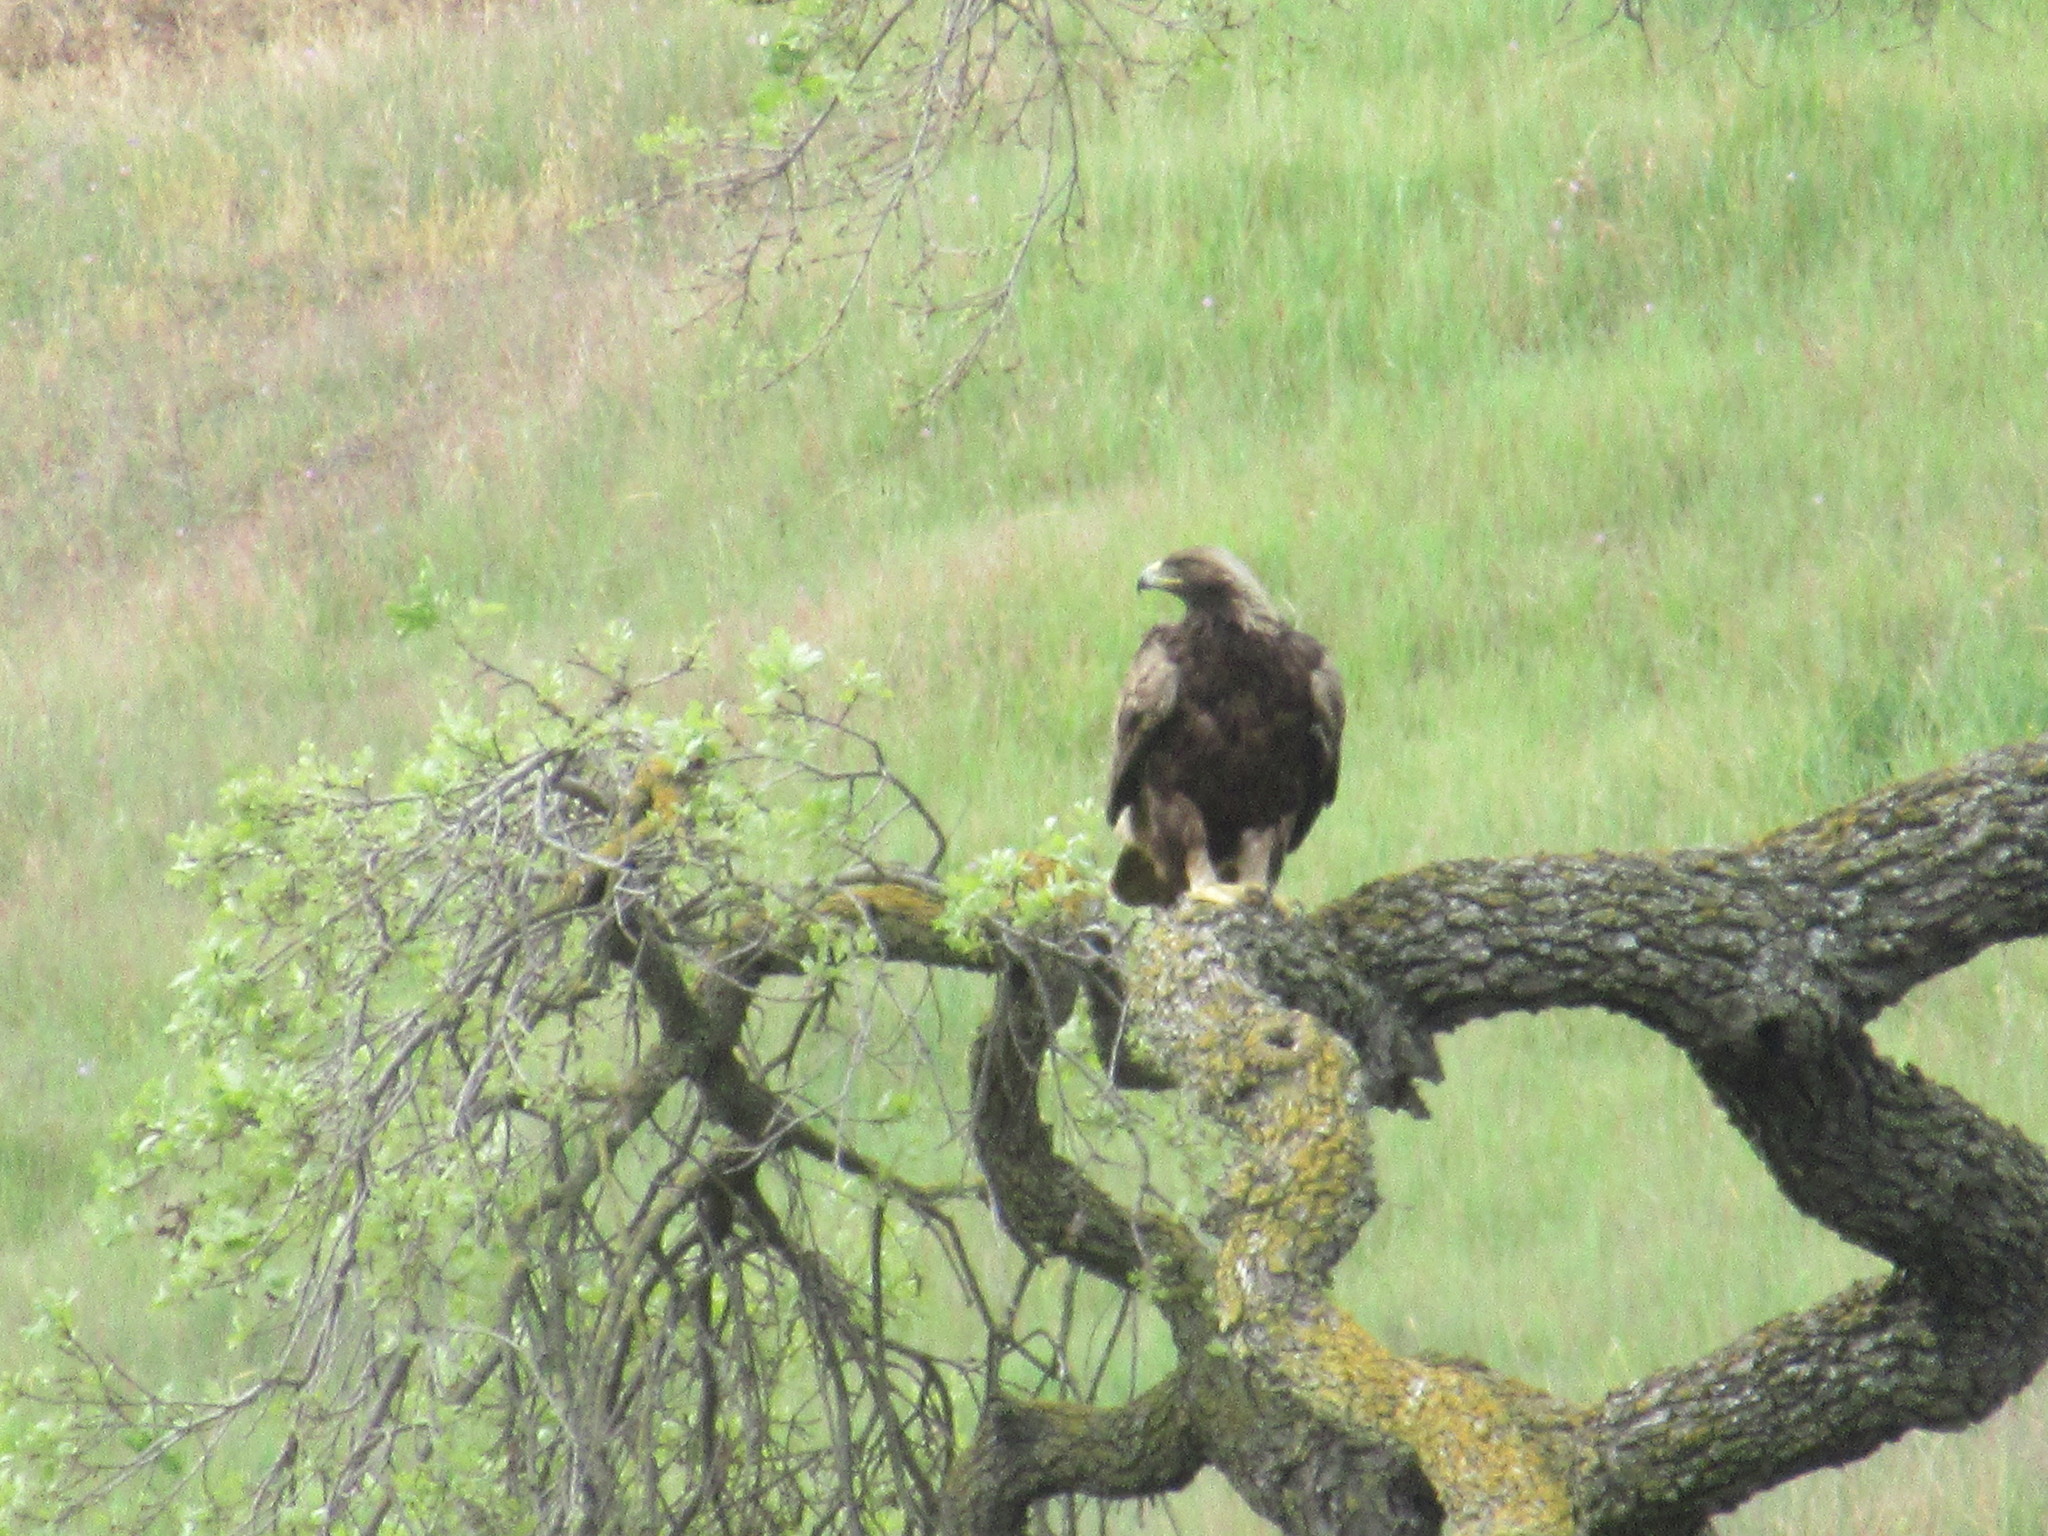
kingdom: Animalia
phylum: Chordata
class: Aves
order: Accipitriformes
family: Accipitridae
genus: Aquila
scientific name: Aquila chrysaetos
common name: Golden eagle
